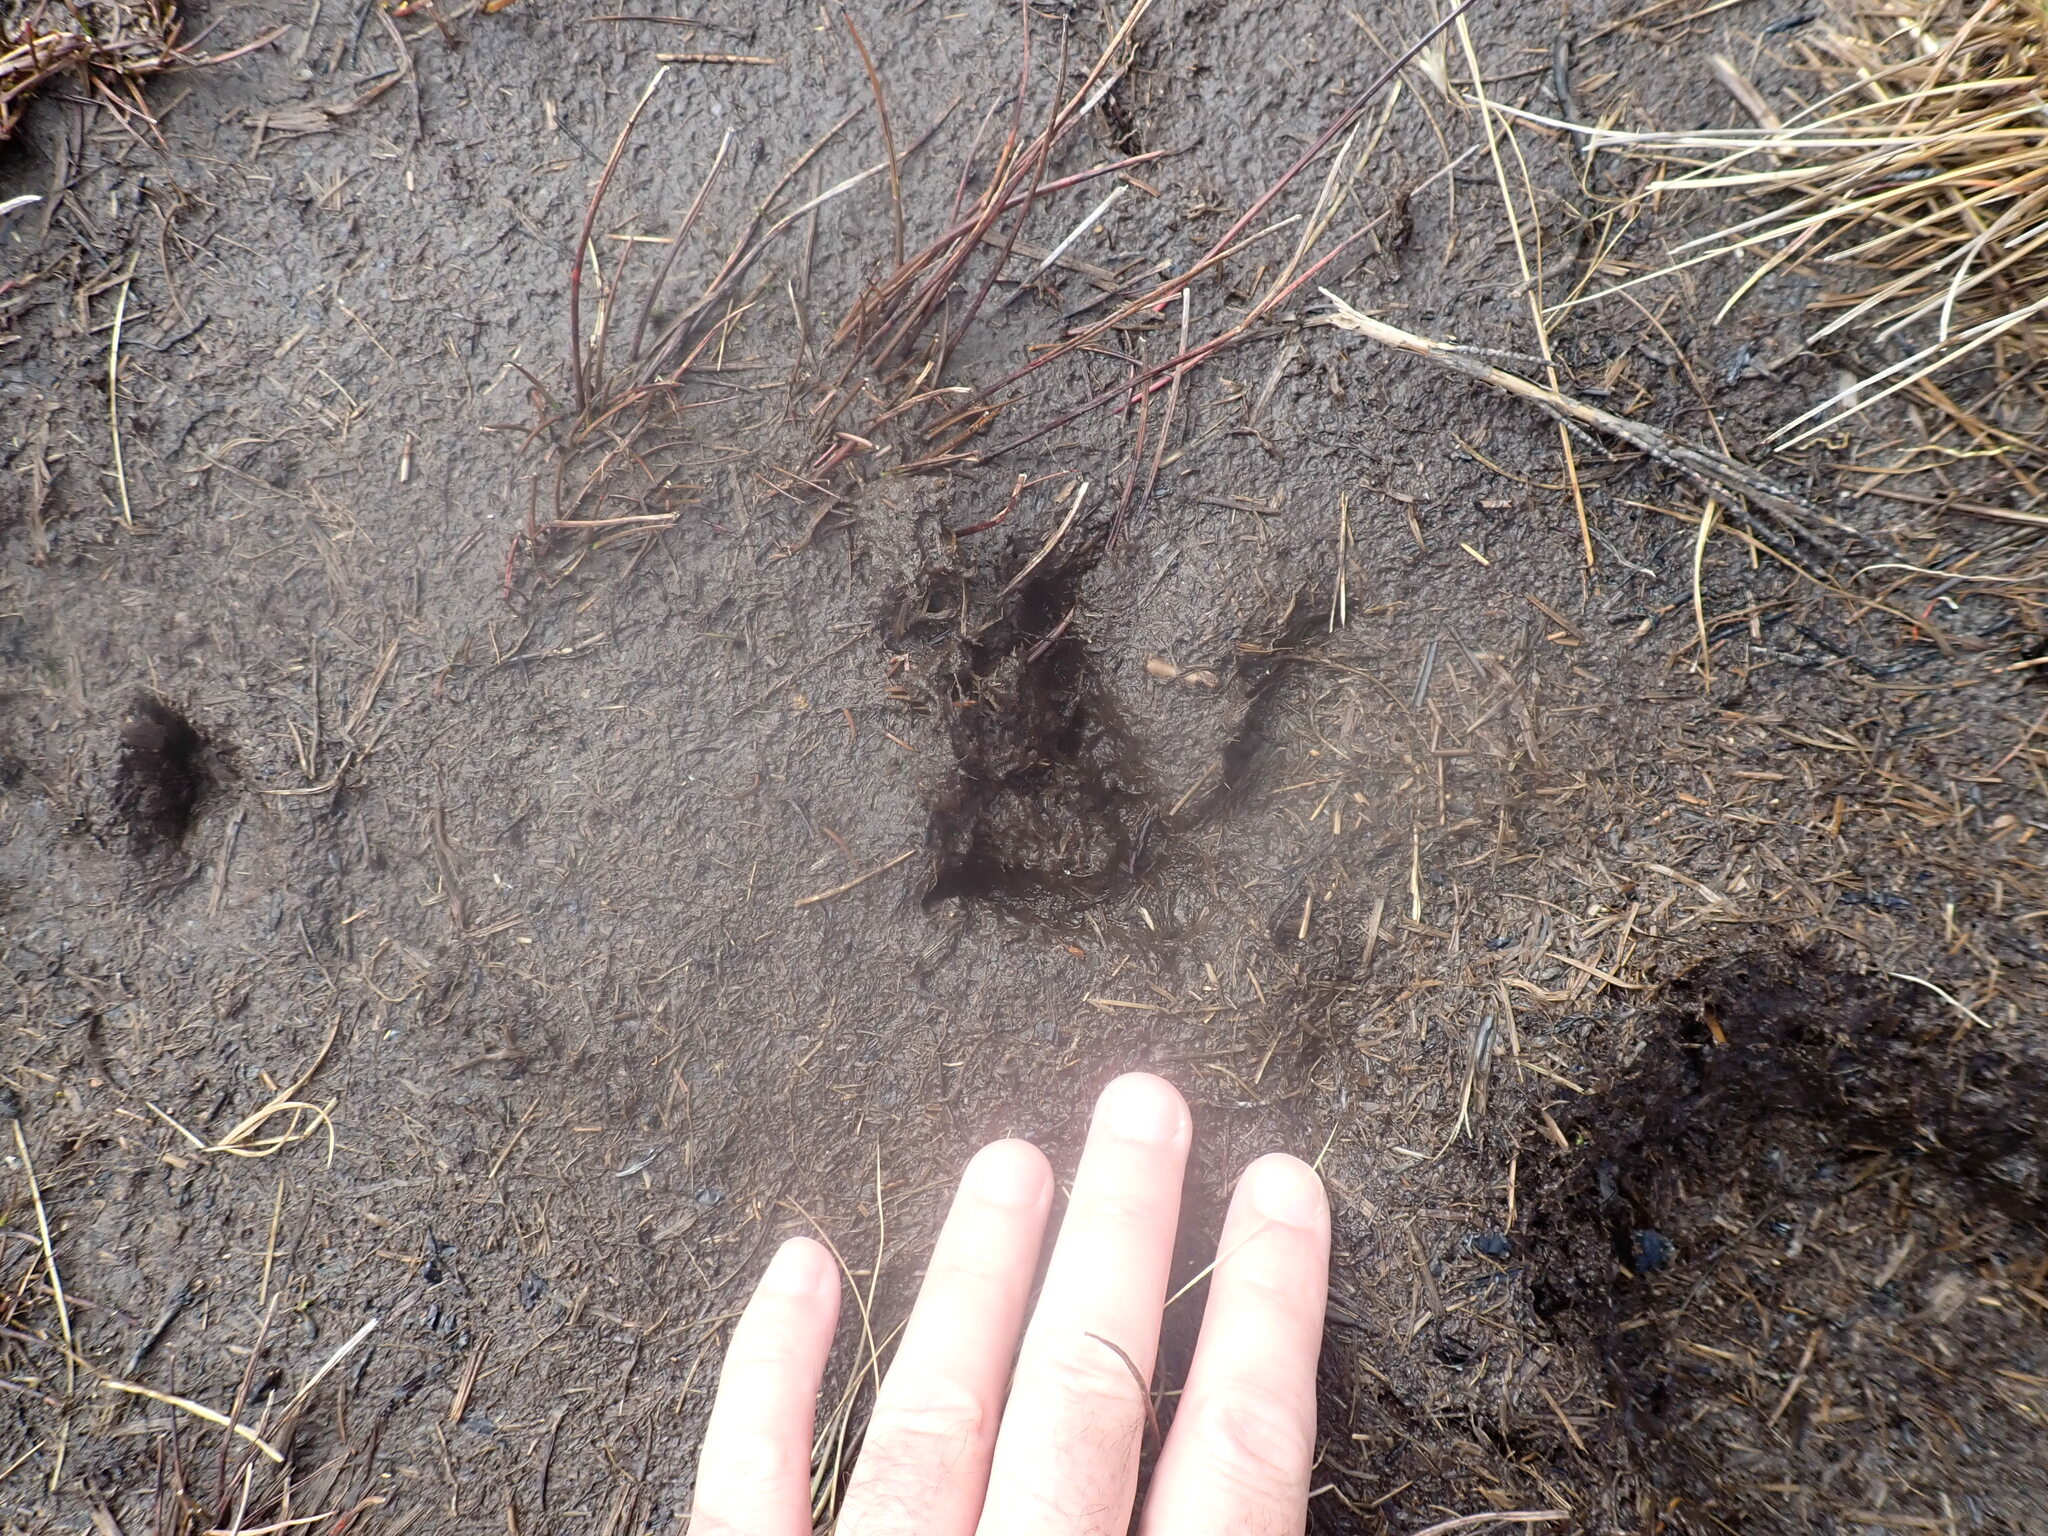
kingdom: Animalia
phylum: Chordata
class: Aves
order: Apterygiformes
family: Apterygidae
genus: Apteryx
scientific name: Apteryx mantelli
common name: North island brown kiwi
